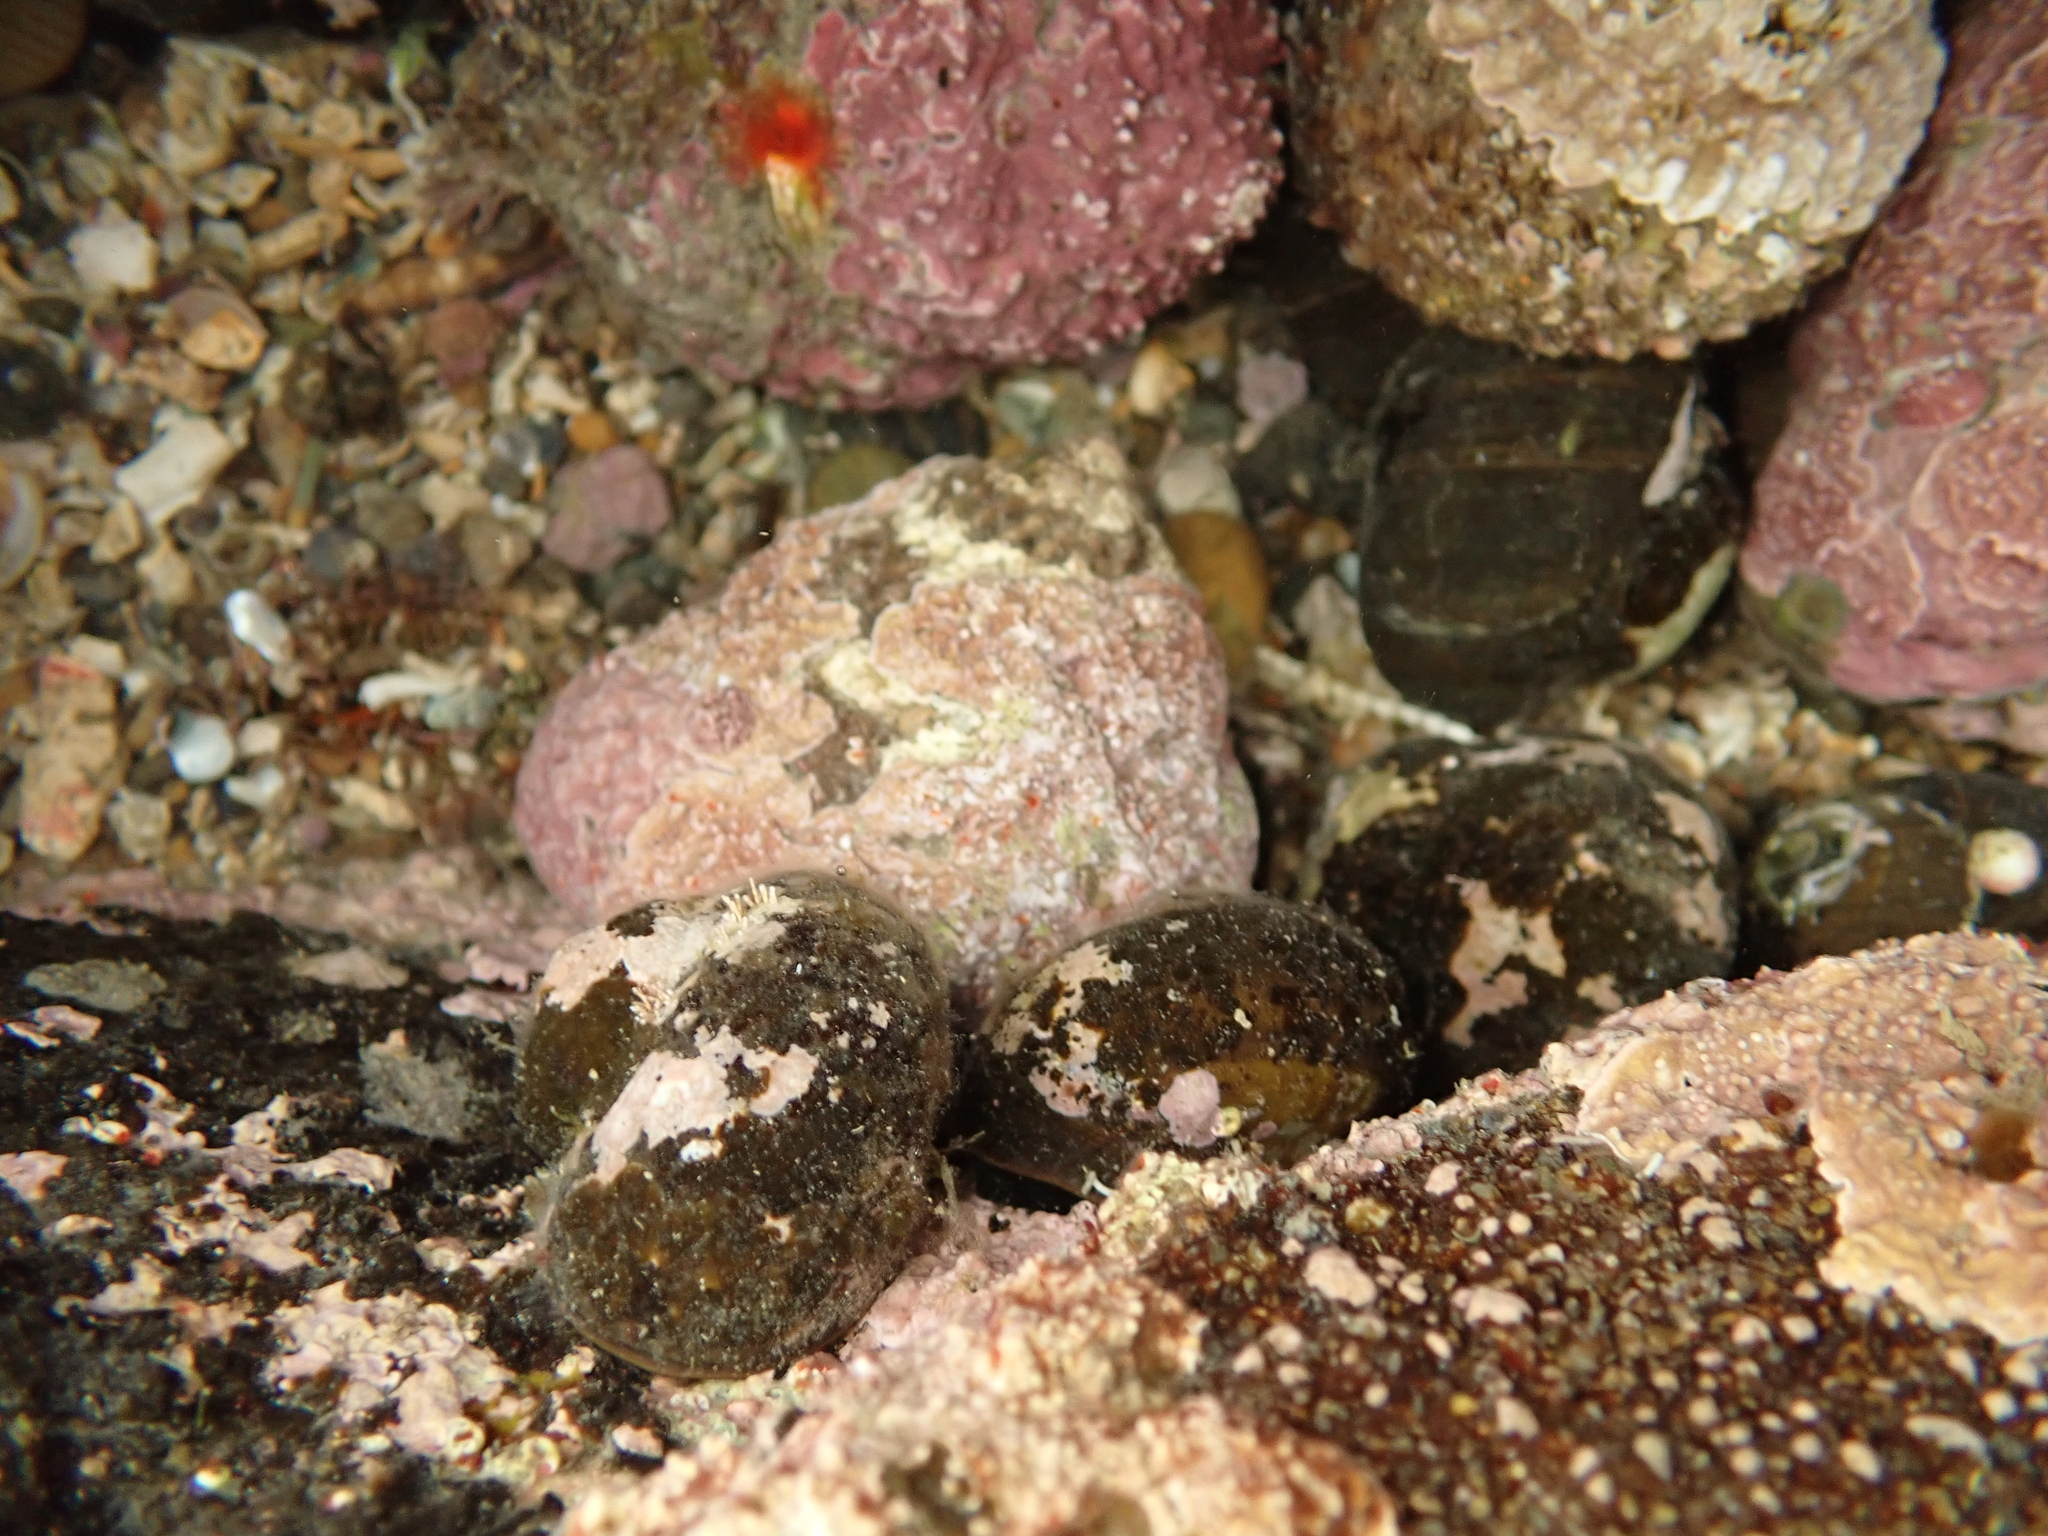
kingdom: Animalia
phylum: Mollusca
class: Gastropoda
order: Trochida
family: Turbinidae
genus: Lunella
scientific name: Lunella smaragda
